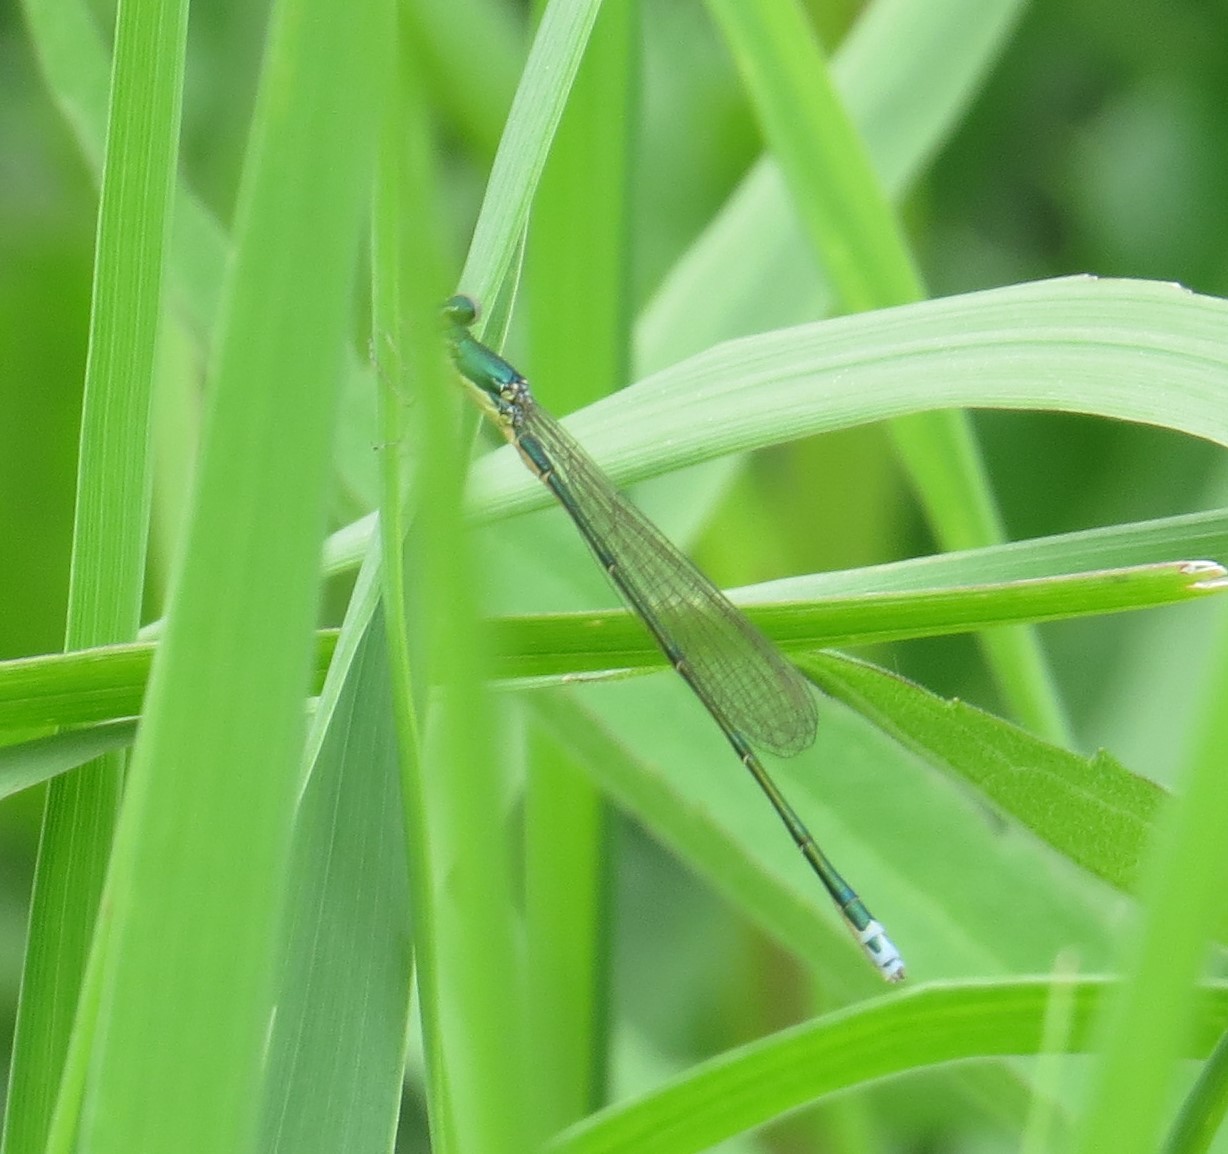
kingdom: Animalia
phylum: Arthropoda
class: Insecta
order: Odonata
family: Coenagrionidae
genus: Nehalennia
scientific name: Nehalennia irene
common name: Sedge sprite
